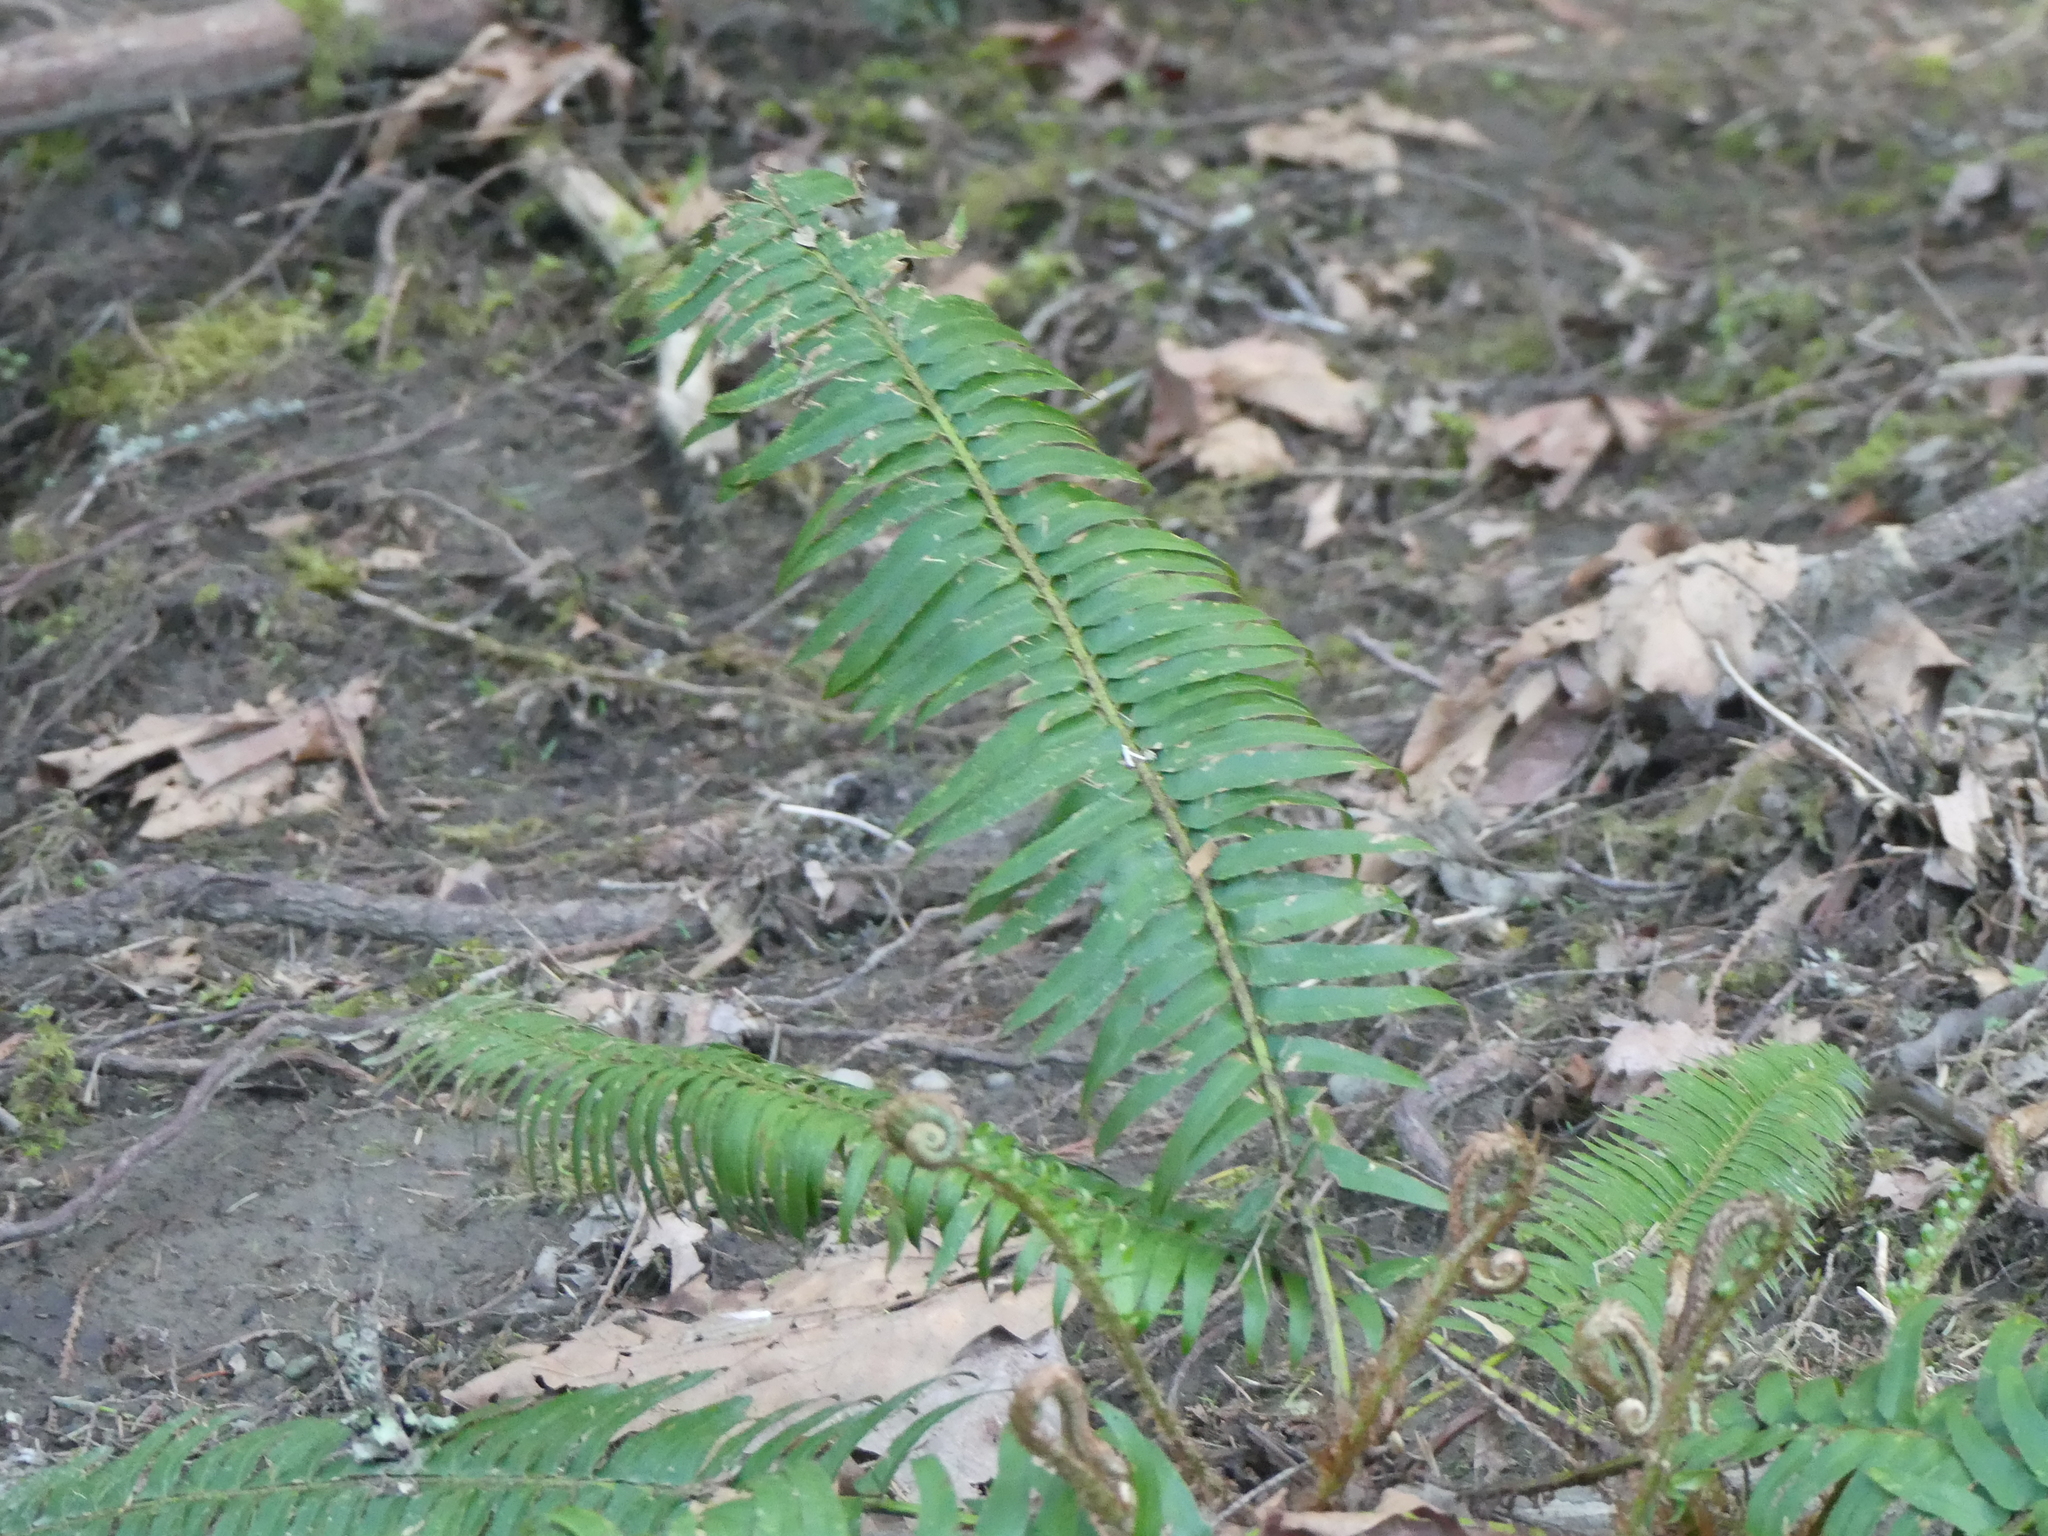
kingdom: Plantae
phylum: Tracheophyta
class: Polypodiopsida
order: Polypodiales
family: Dryopteridaceae
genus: Polystichum
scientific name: Polystichum munitum
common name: Western sword-fern
